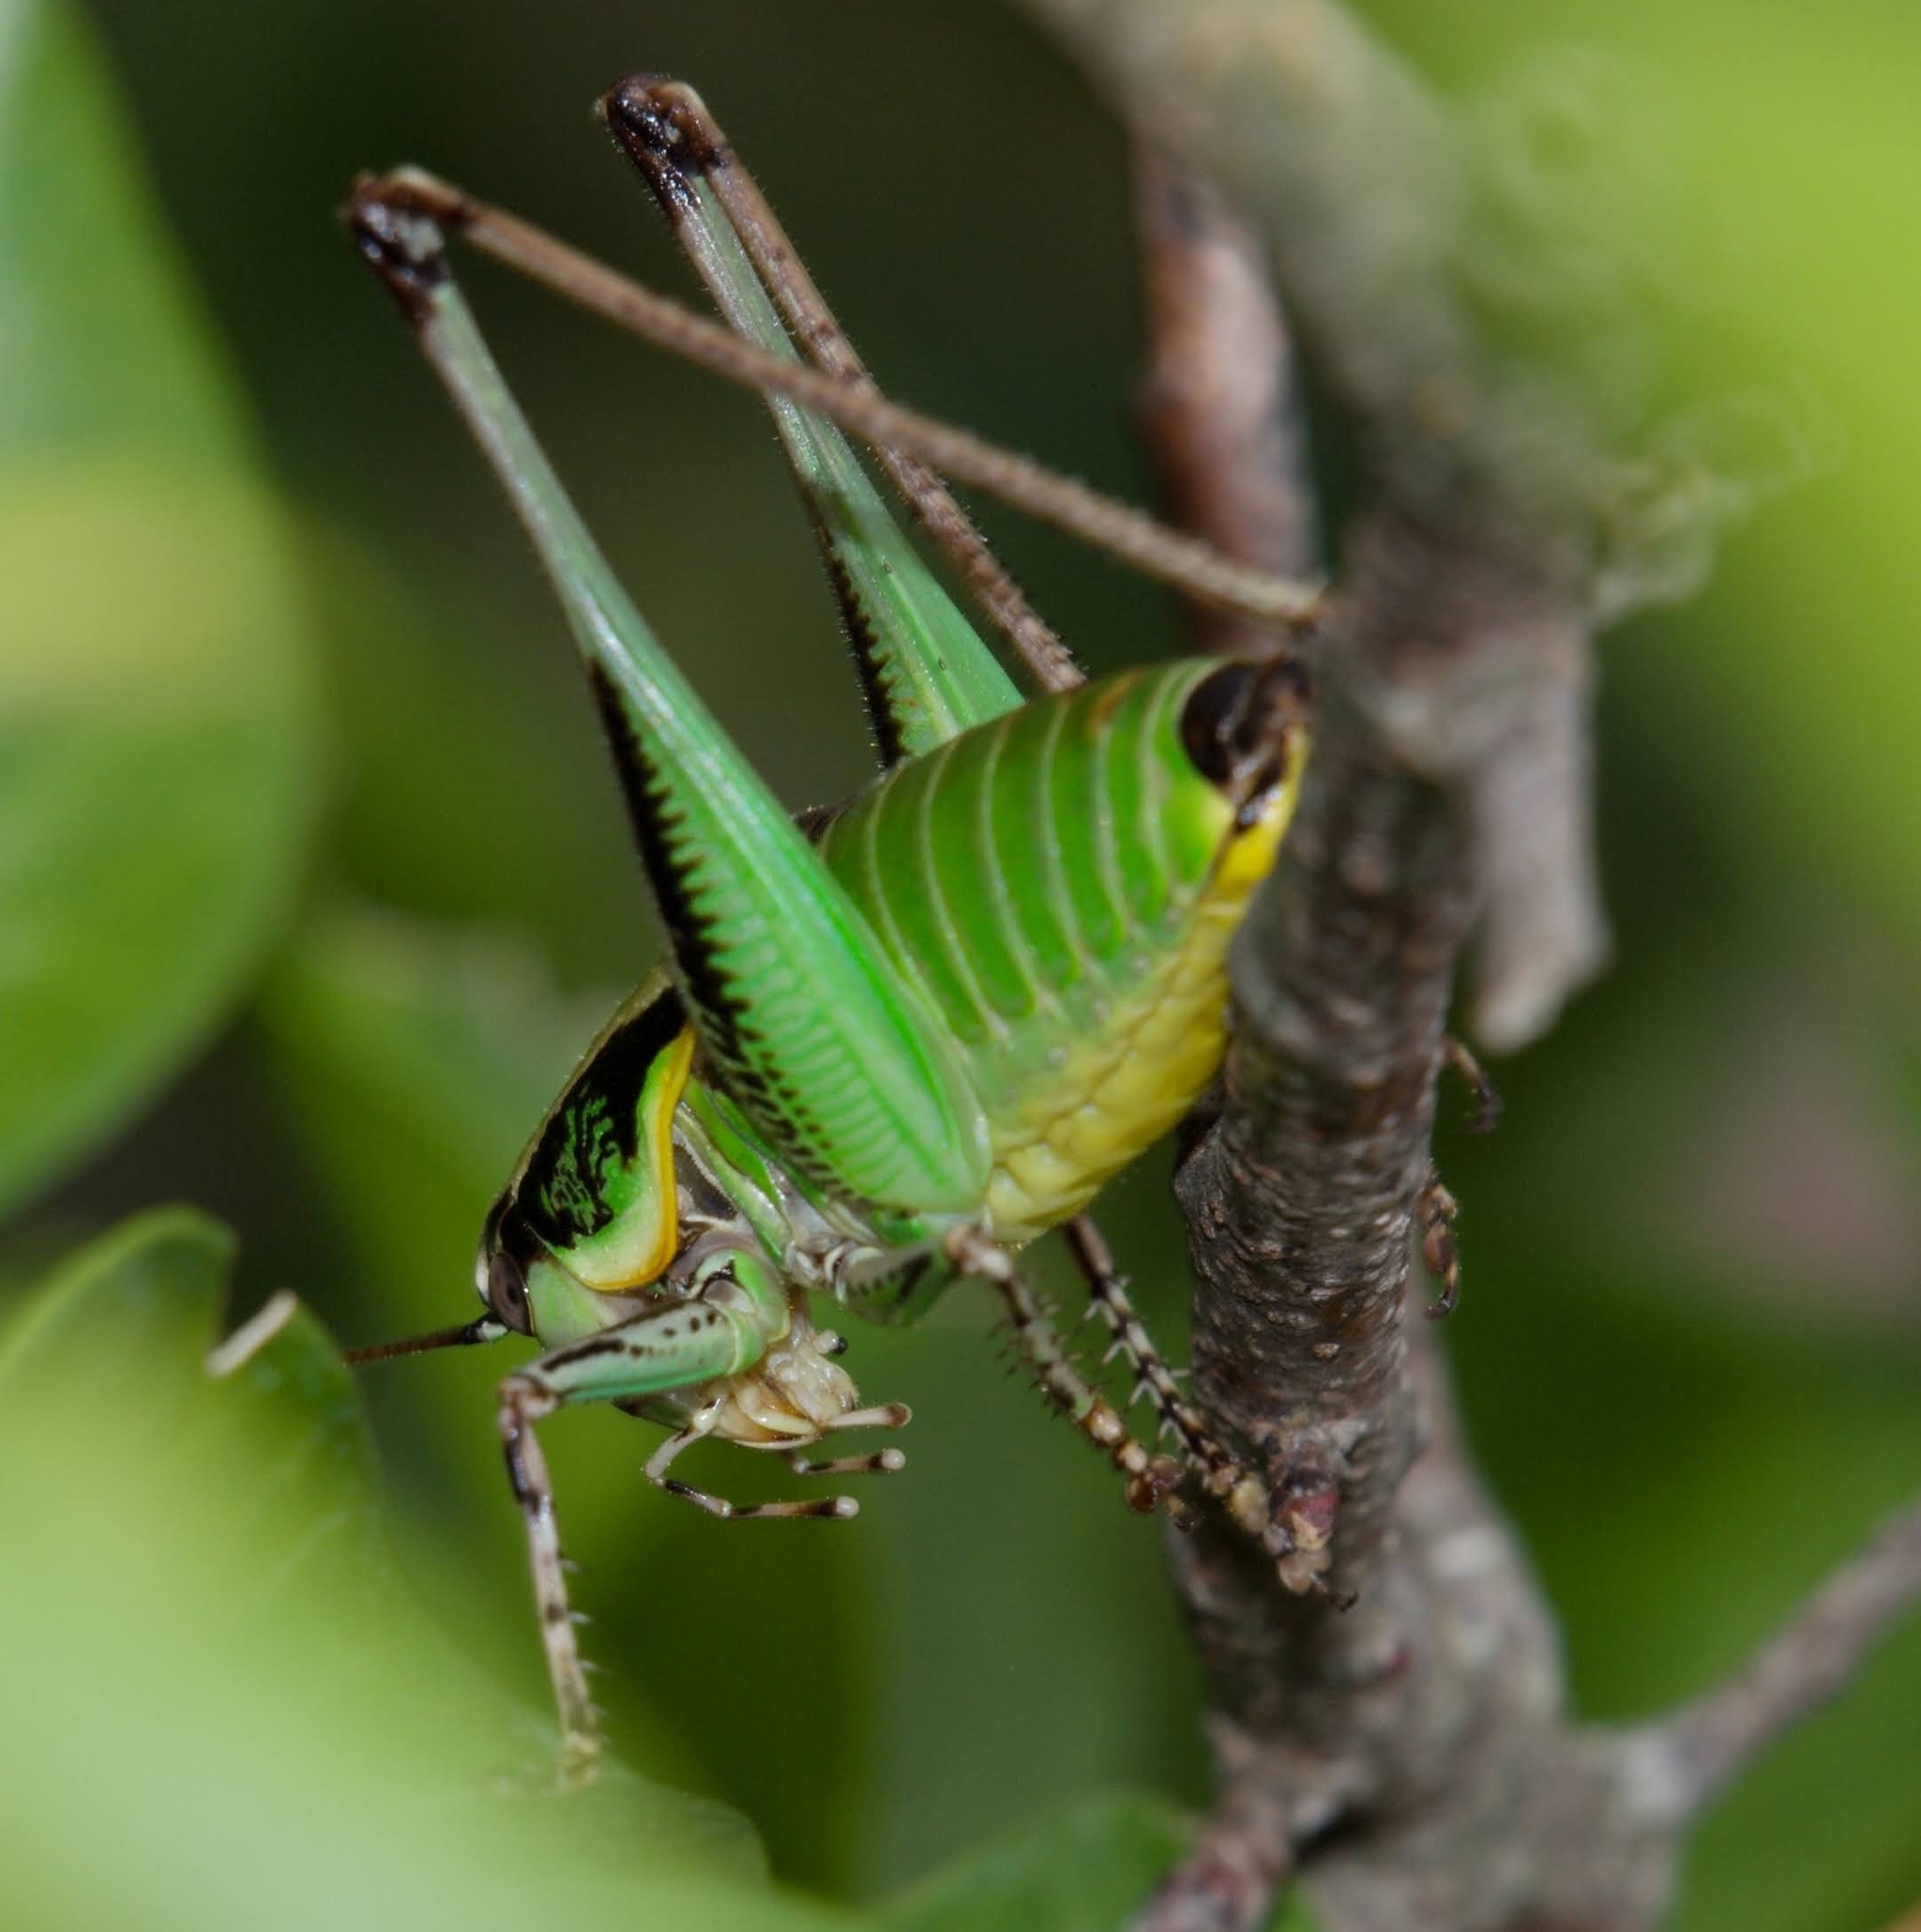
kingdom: Animalia
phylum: Arthropoda
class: Insecta
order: Orthoptera
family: Tettigoniidae
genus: Eupholidoptera
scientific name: Eupholidoptera schmidti
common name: Schmidt's marbled bush-cricket
